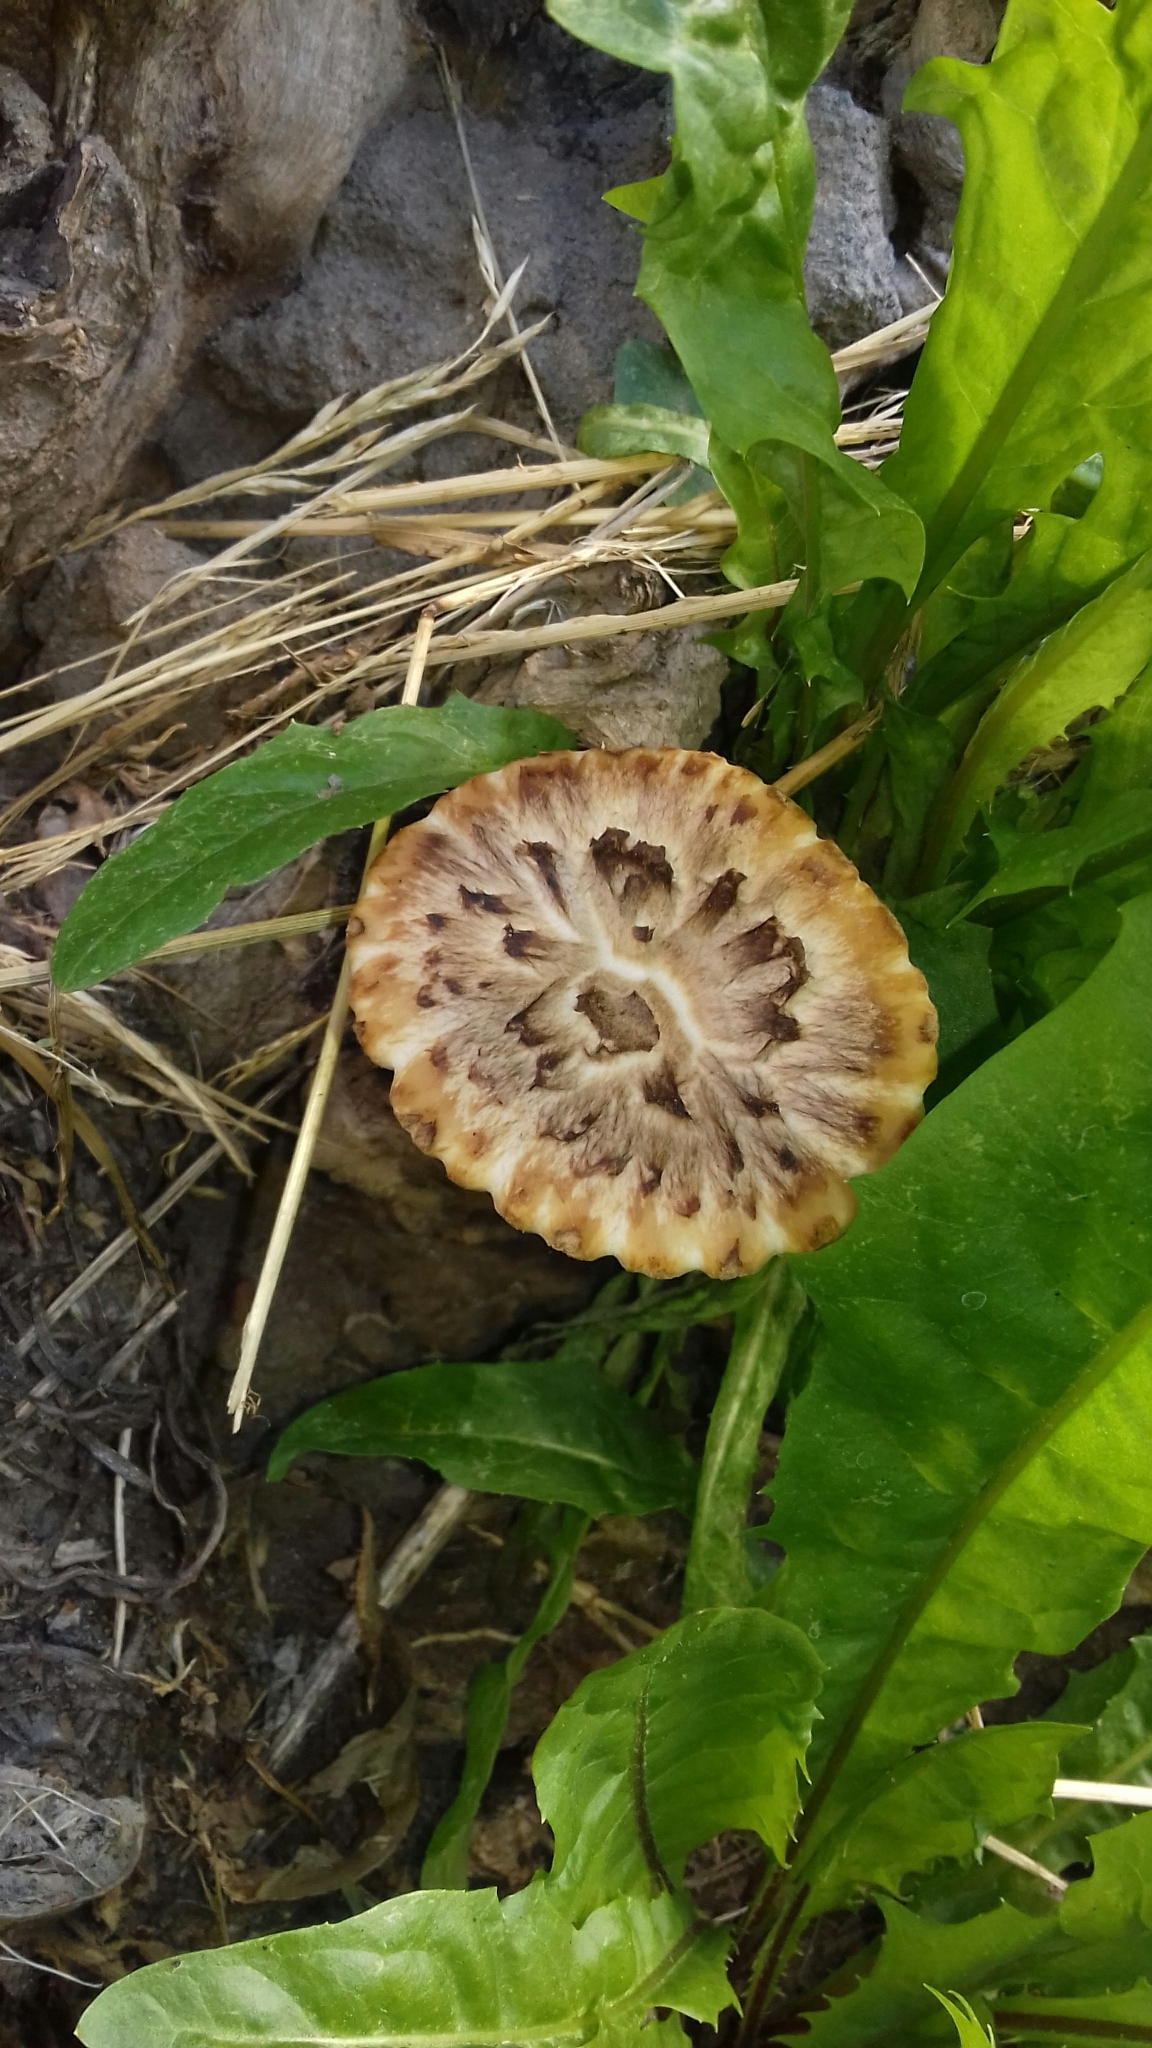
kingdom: Fungi
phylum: Basidiomycota
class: Agaricomycetes
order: Polyporales
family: Polyporaceae
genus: Cerioporus
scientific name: Cerioporus squamosus
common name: Dryad's saddle
